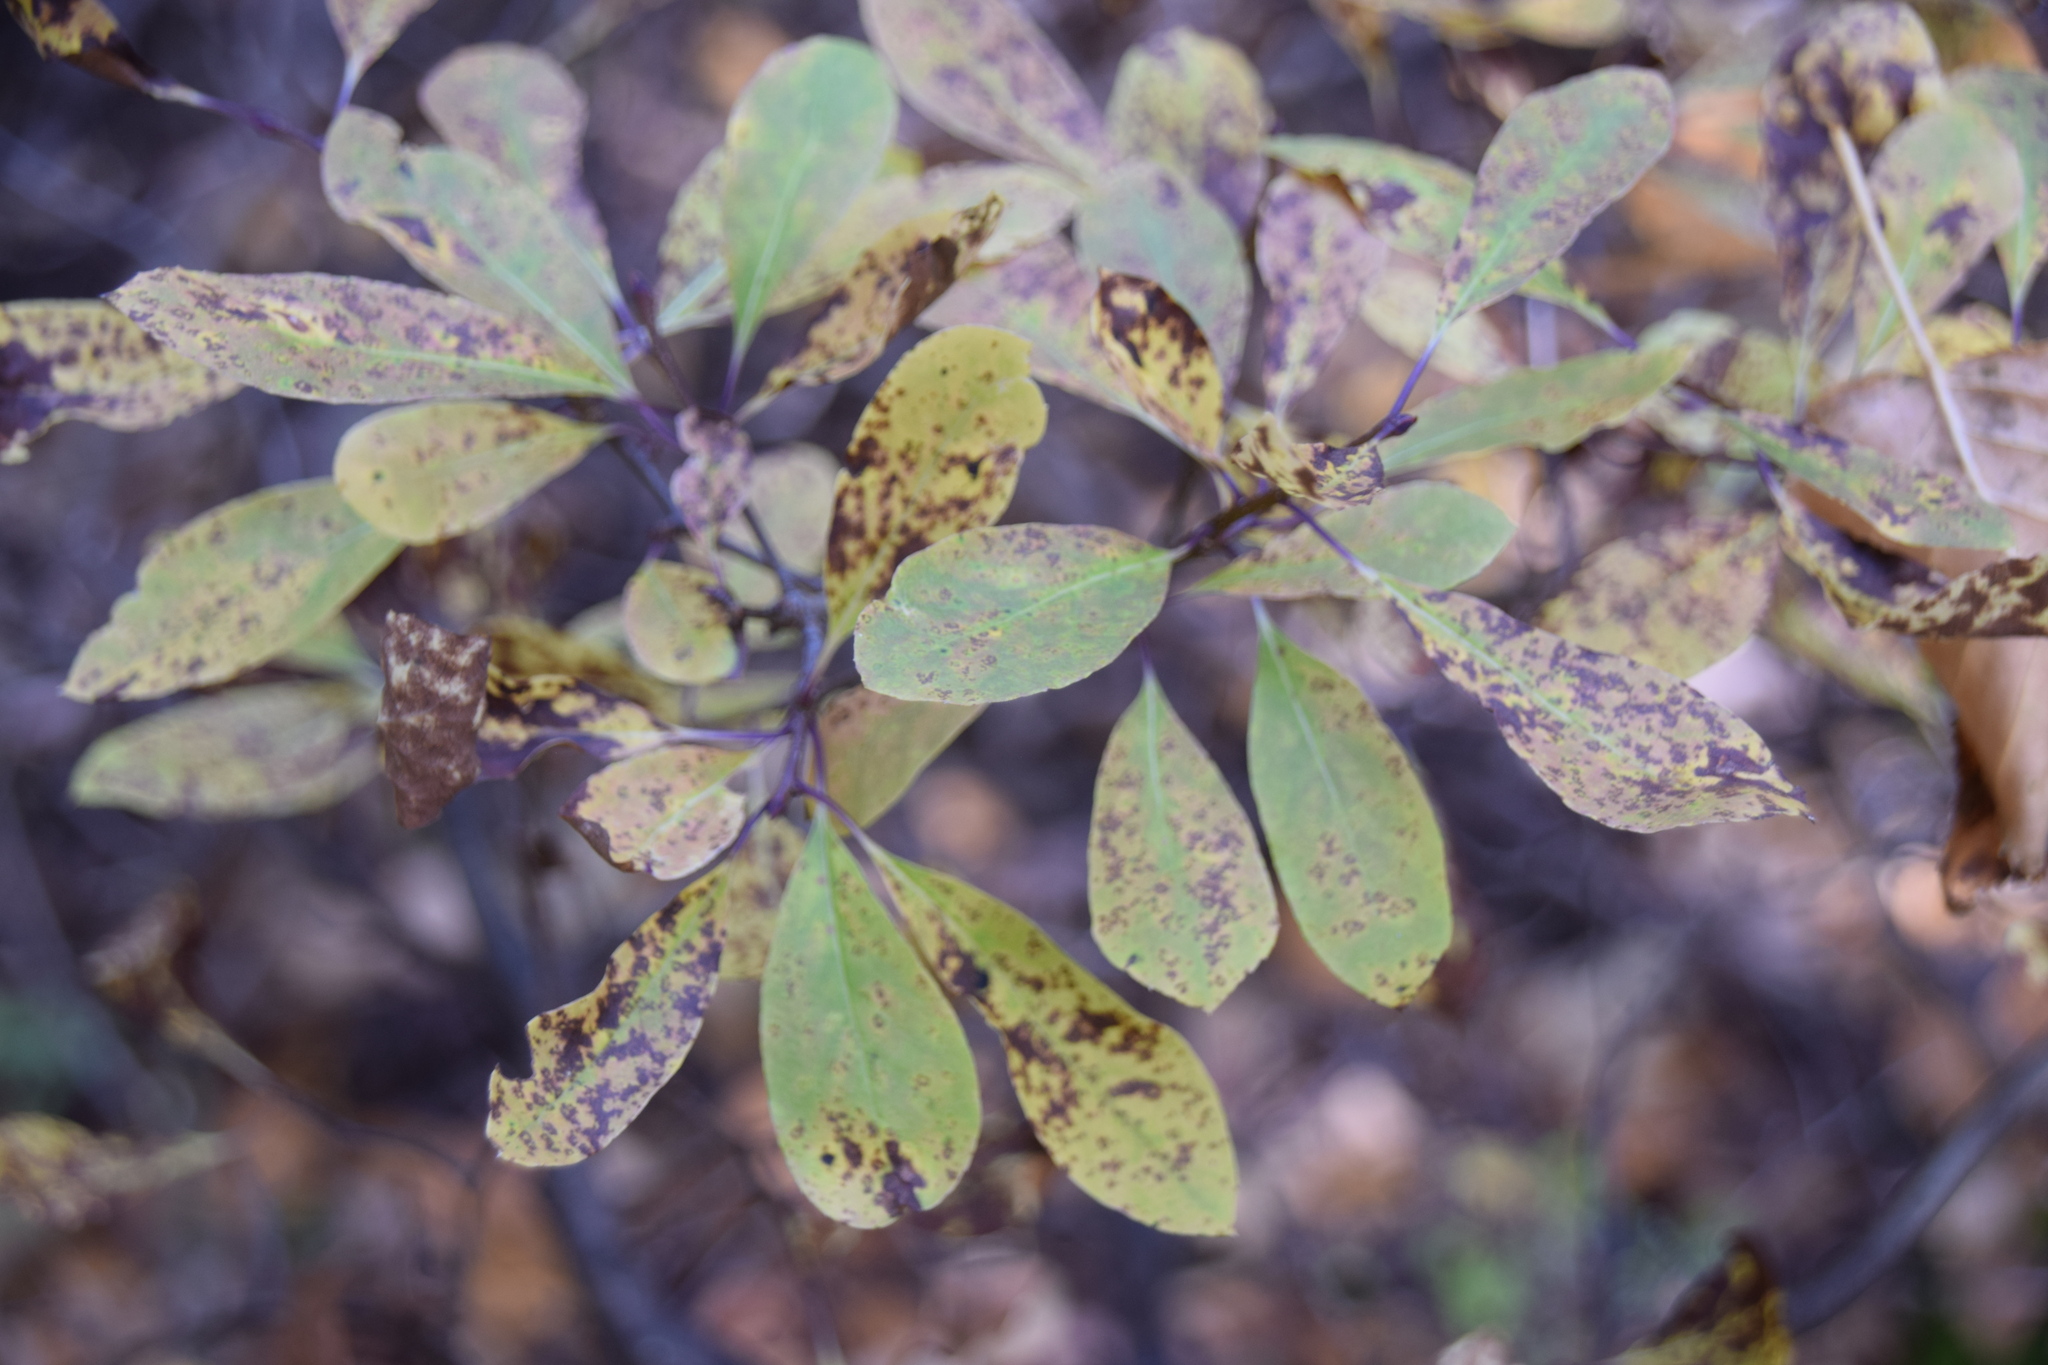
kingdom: Plantae
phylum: Tracheophyta
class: Magnoliopsida
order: Aquifoliales
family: Aquifoliaceae
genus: Ilex
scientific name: Ilex mucronata
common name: Catberry
